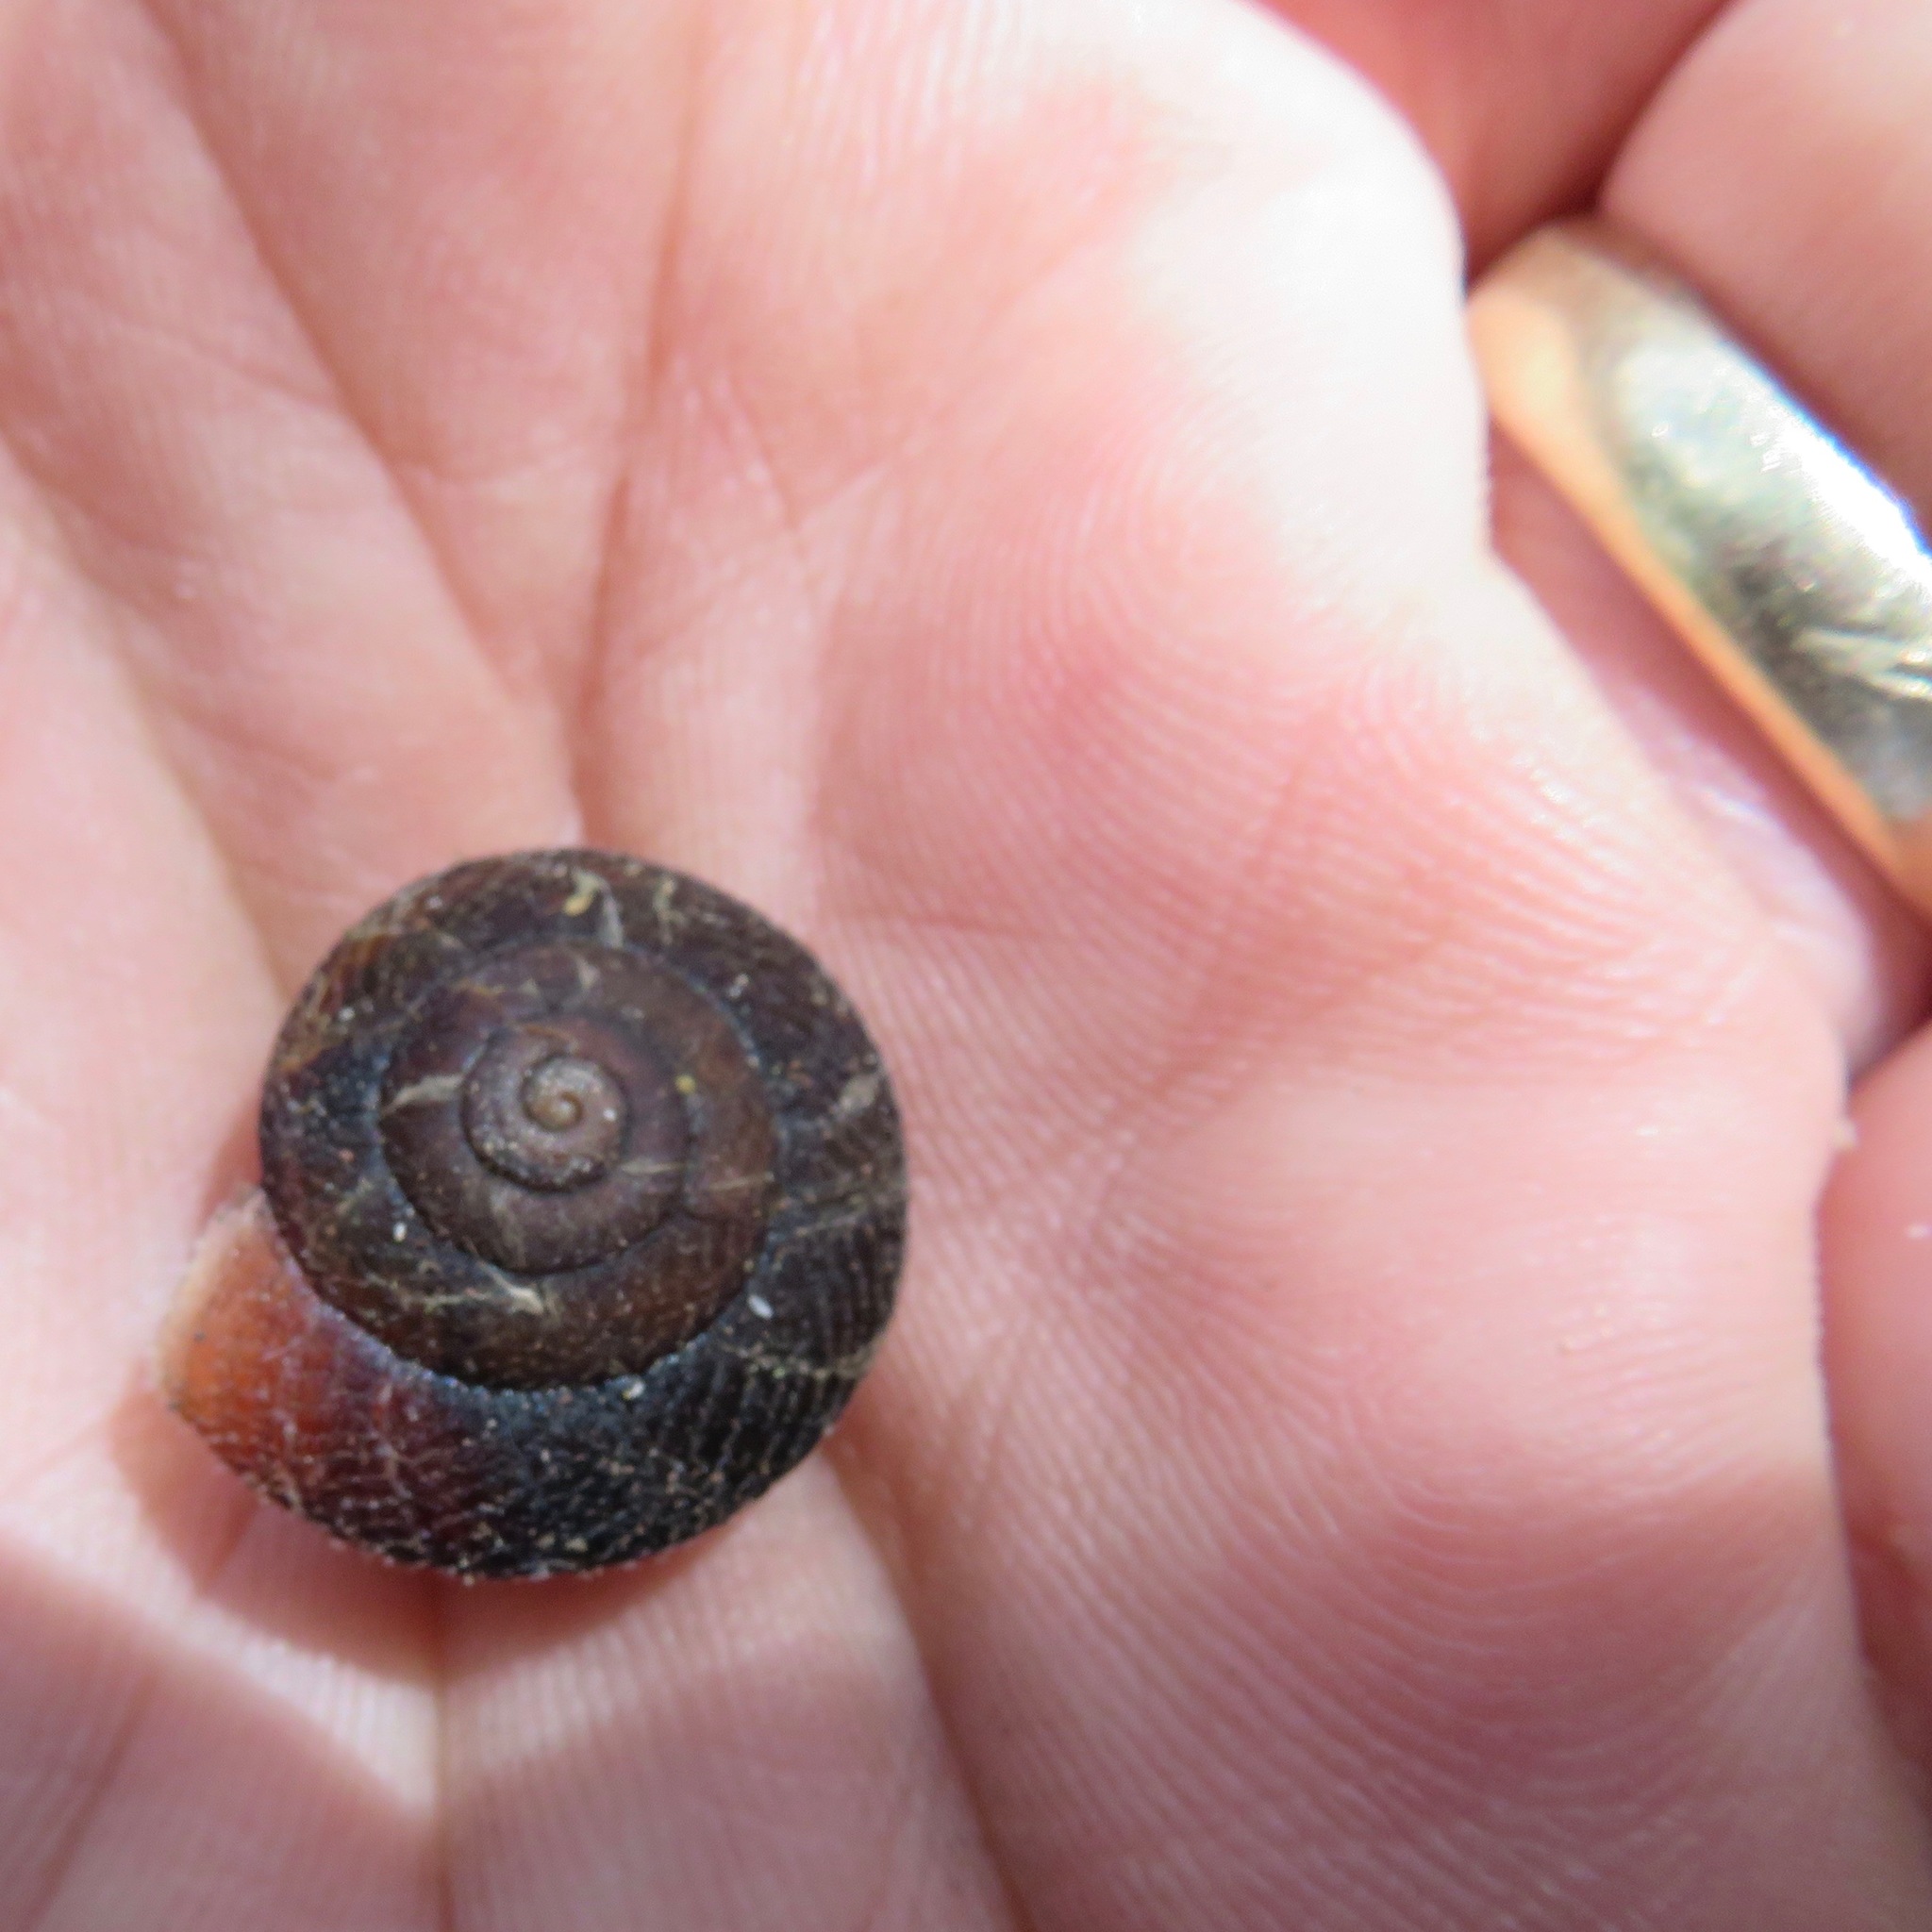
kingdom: Animalia
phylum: Mollusca
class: Gastropoda
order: Stylommatophora
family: Xanthonychidae
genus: Monadenia
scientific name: Monadenia infumata
